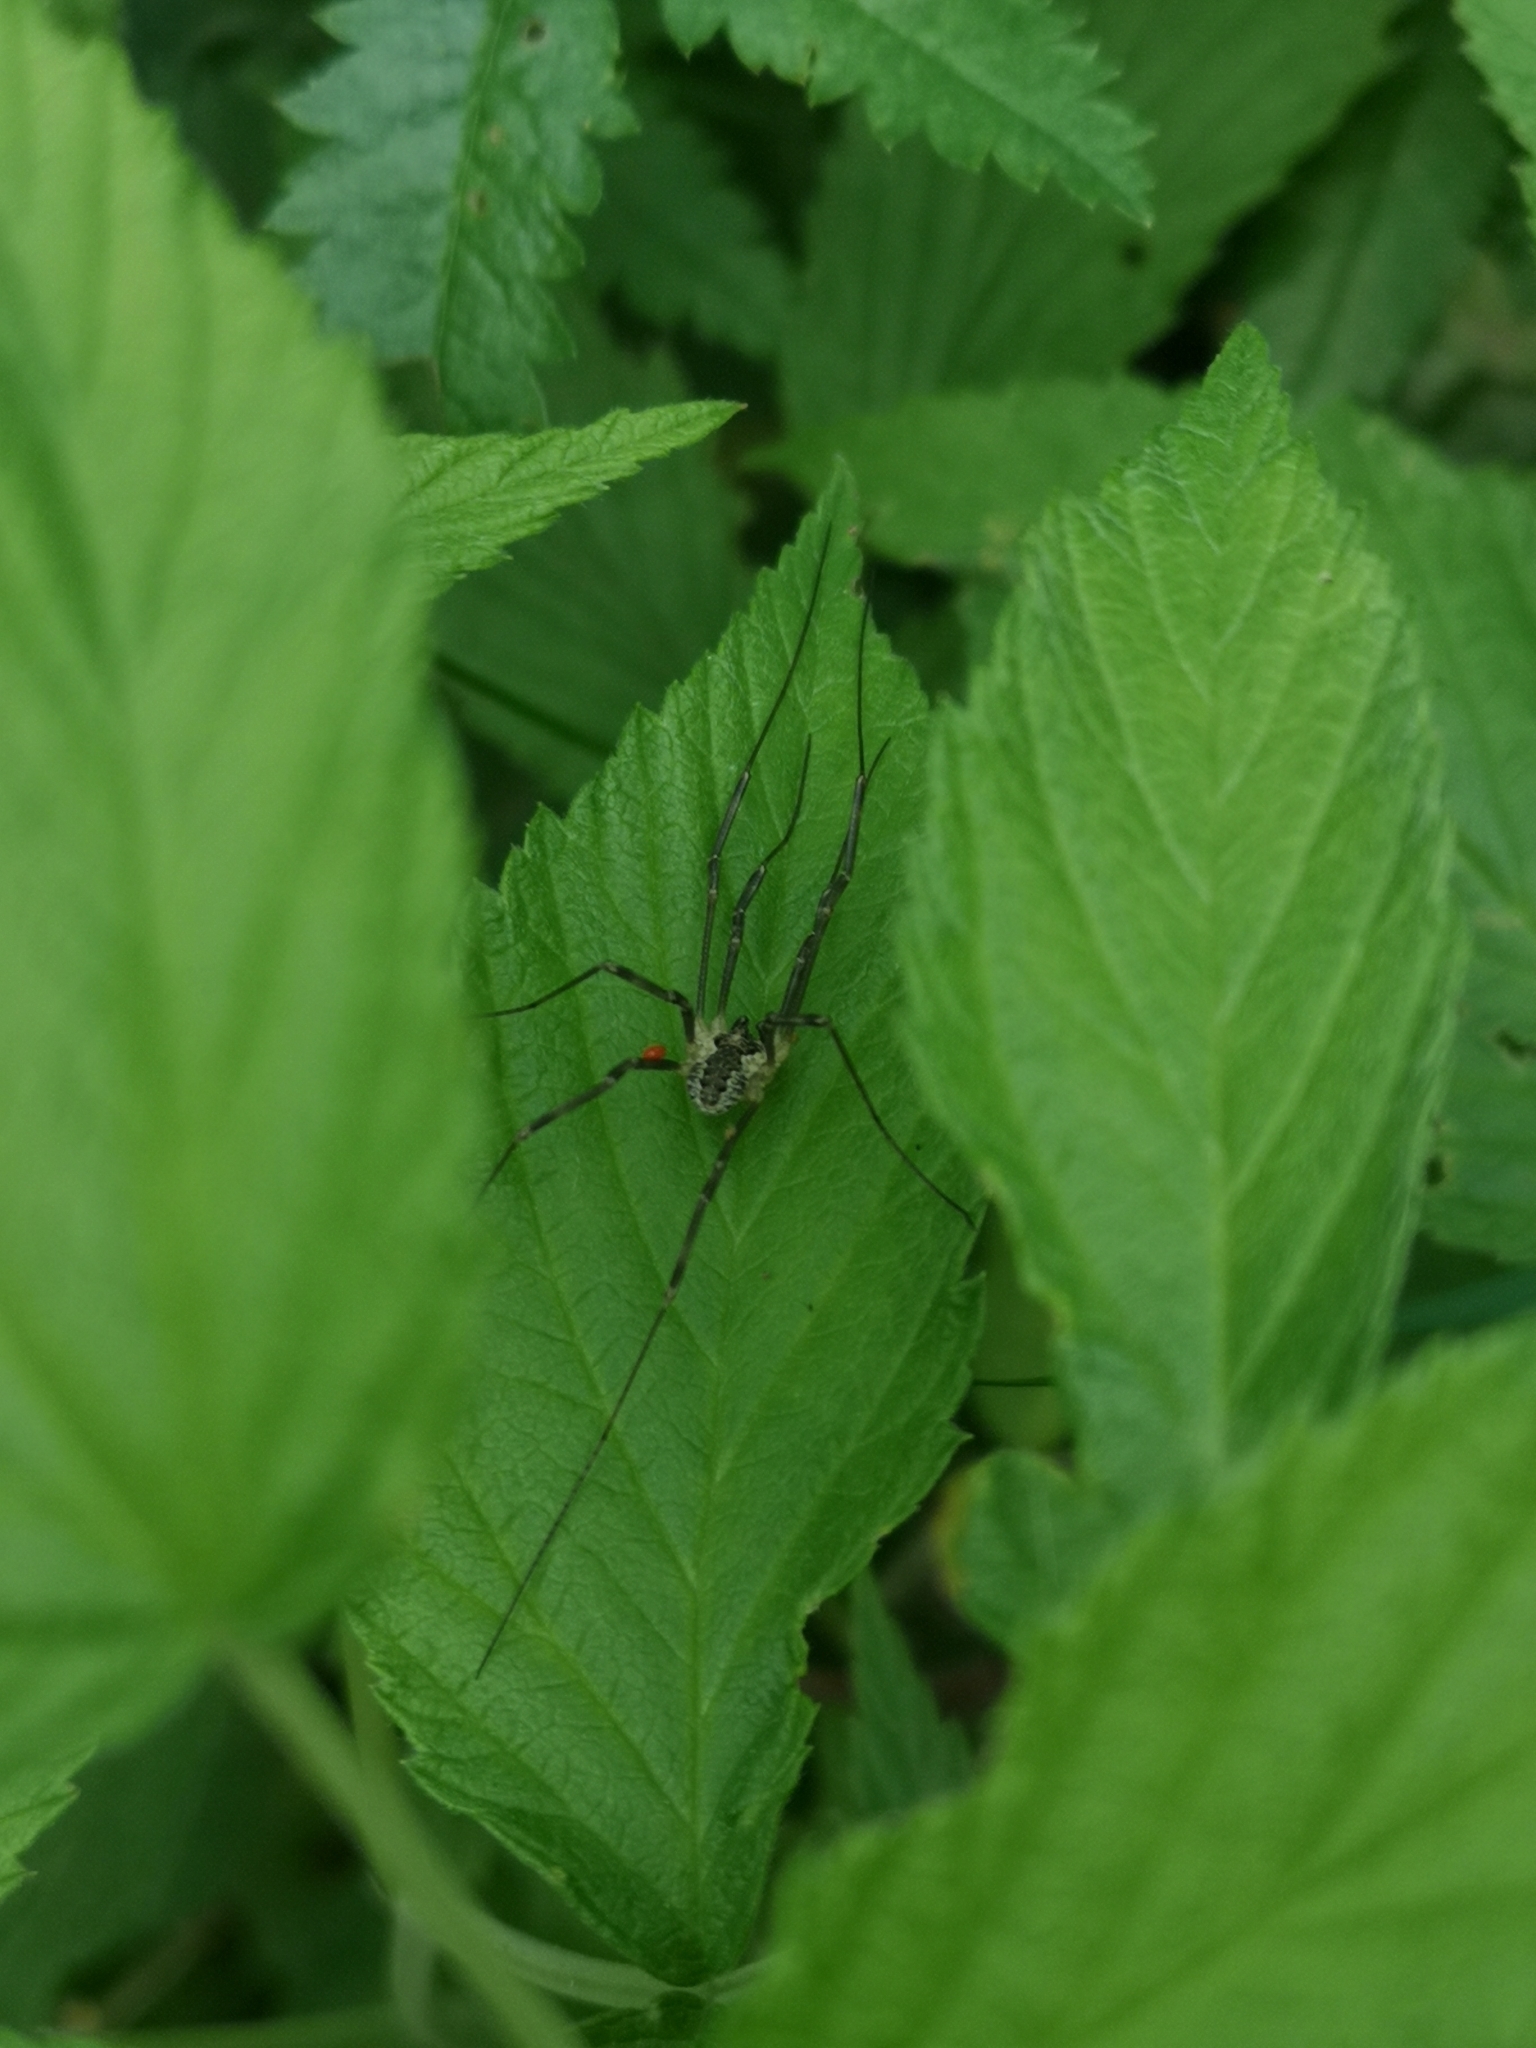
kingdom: Animalia
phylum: Arthropoda
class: Arachnida
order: Opiliones
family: Phalangiidae
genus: Mitopus
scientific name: Mitopus morio
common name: Saddleback harvestman
